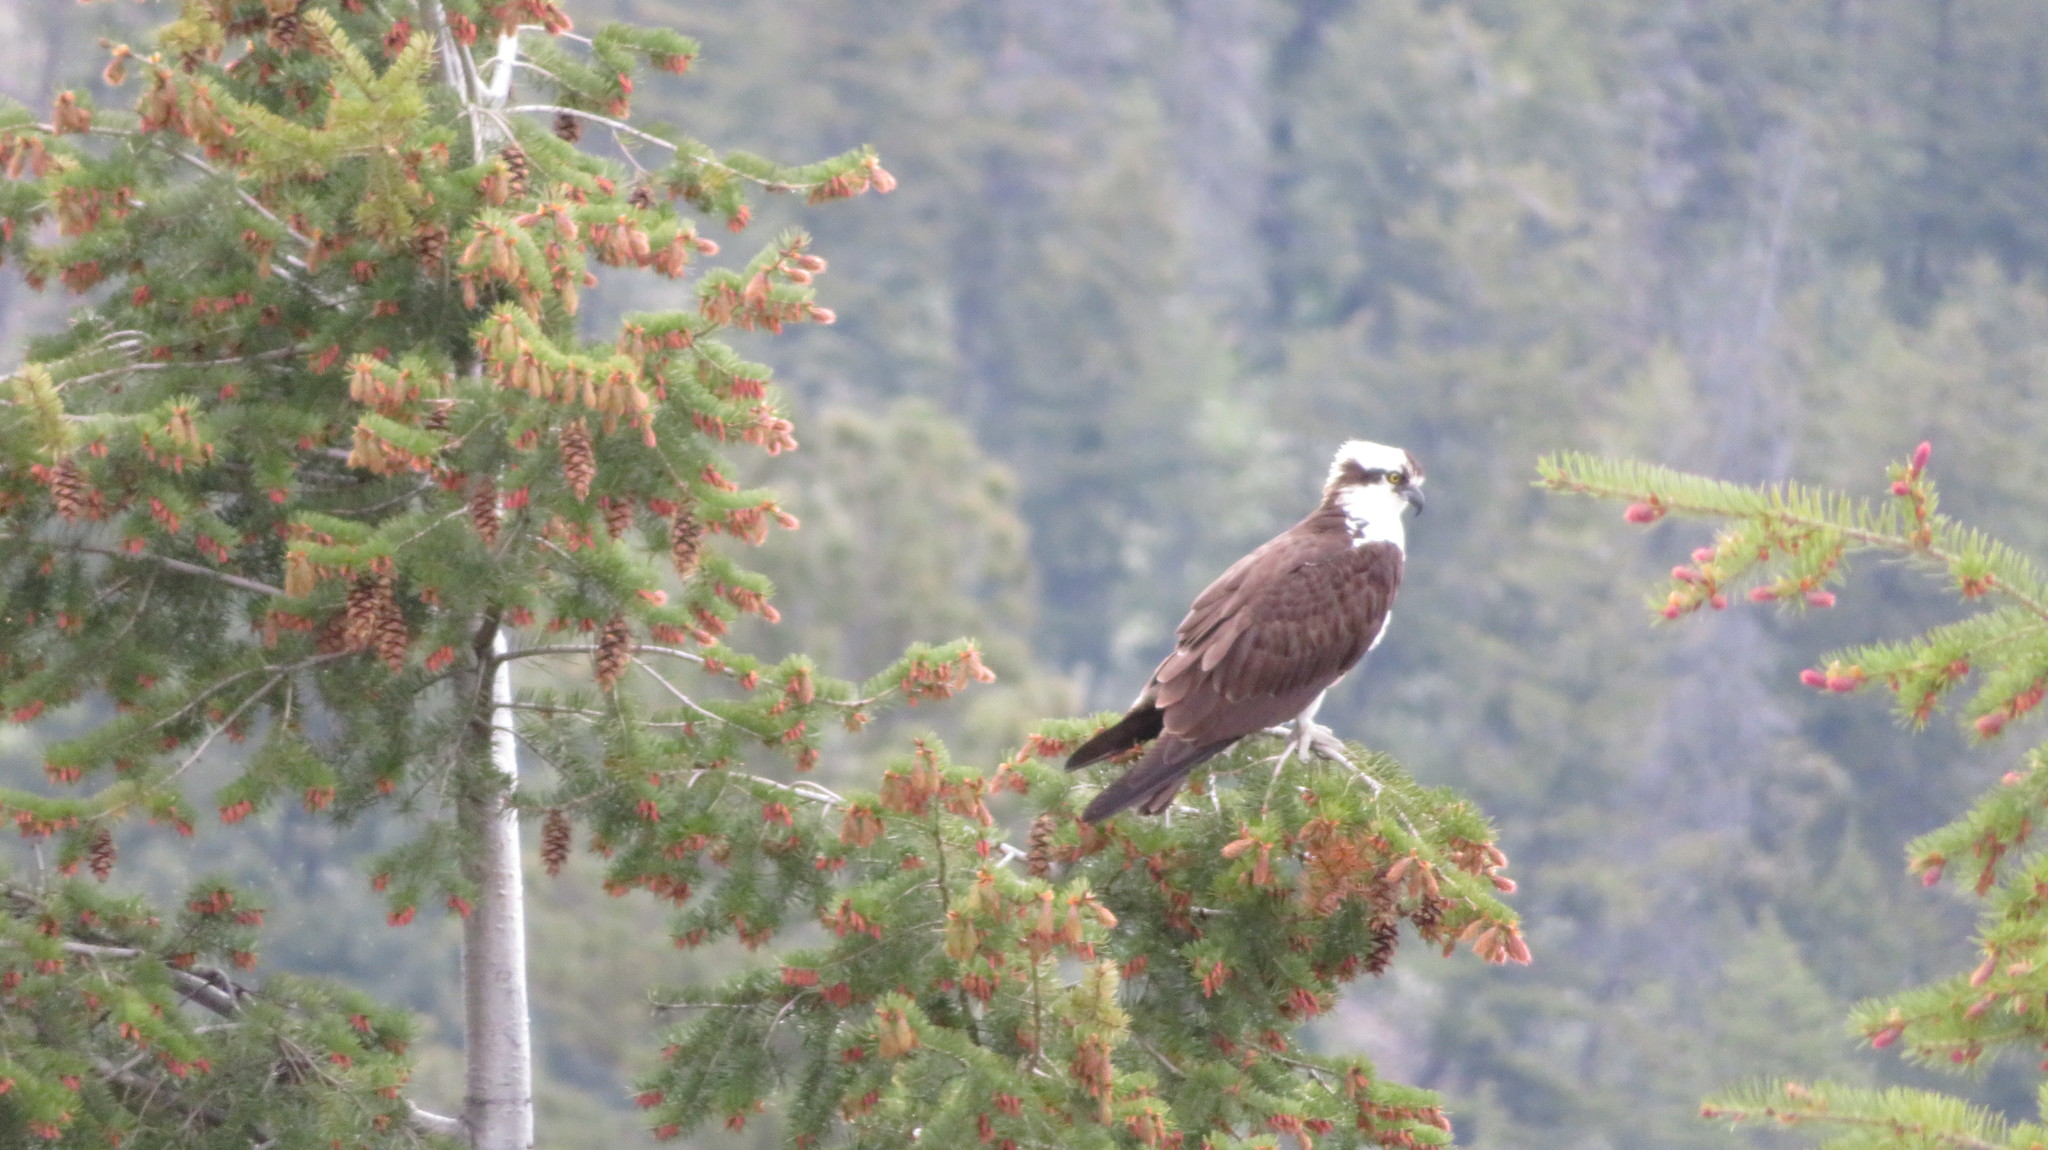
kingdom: Animalia
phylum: Chordata
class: Aves
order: Accipitriformes
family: Pandionidae
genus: Pandion
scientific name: Pandion haliaetus
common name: Osprey
